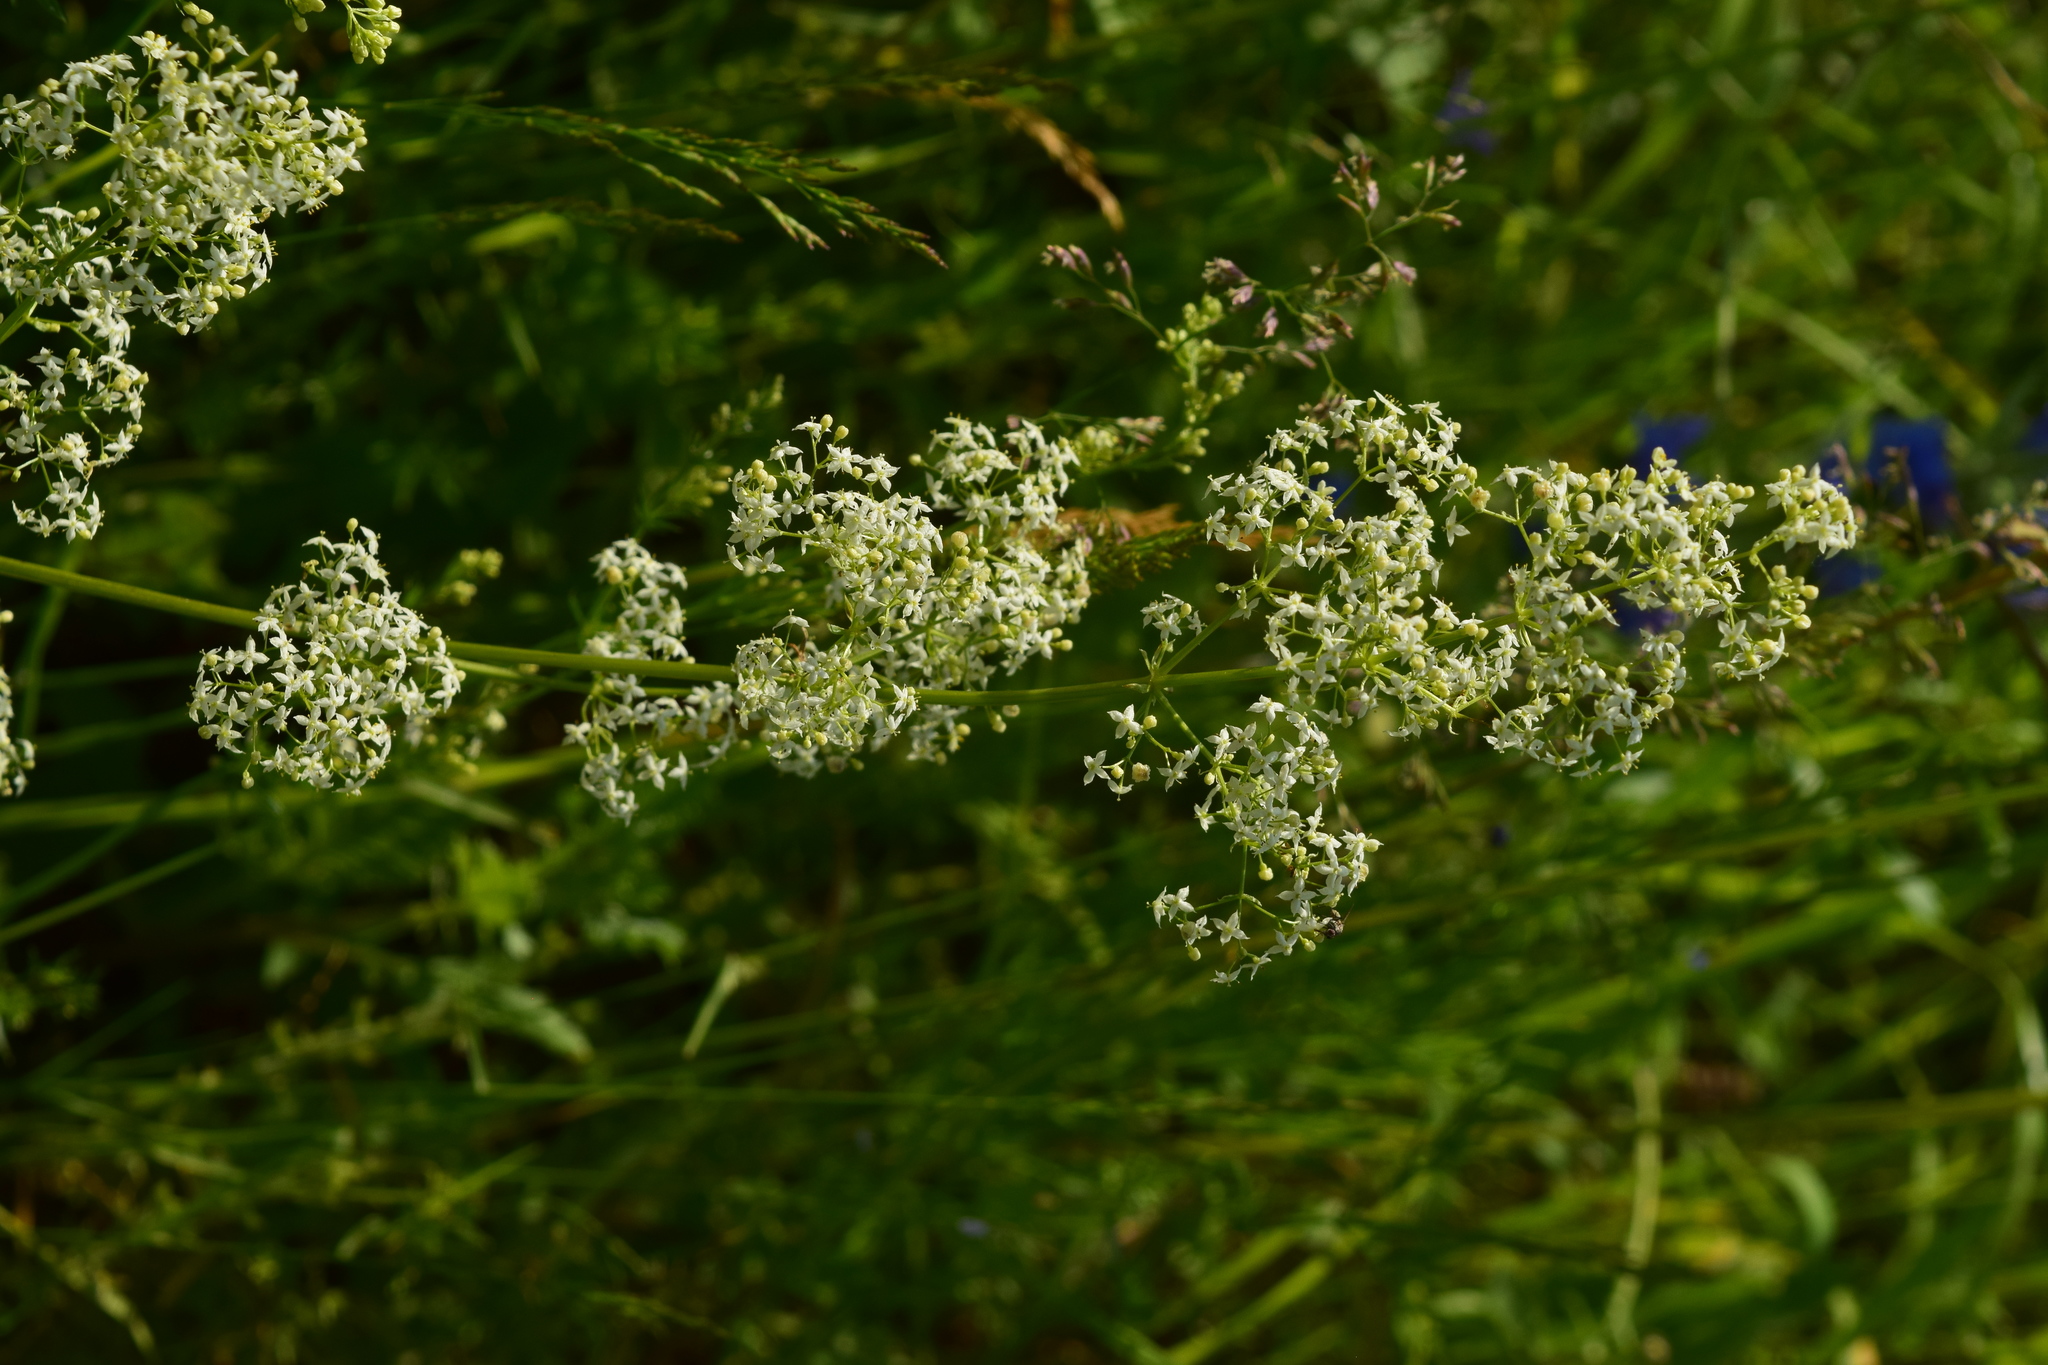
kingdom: Plantae
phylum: Tracheophyta
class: Magnoliopsida
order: Gentianales
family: Rubiaceae
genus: Galium
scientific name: Galium mollugo
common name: Hedge bedstraw
